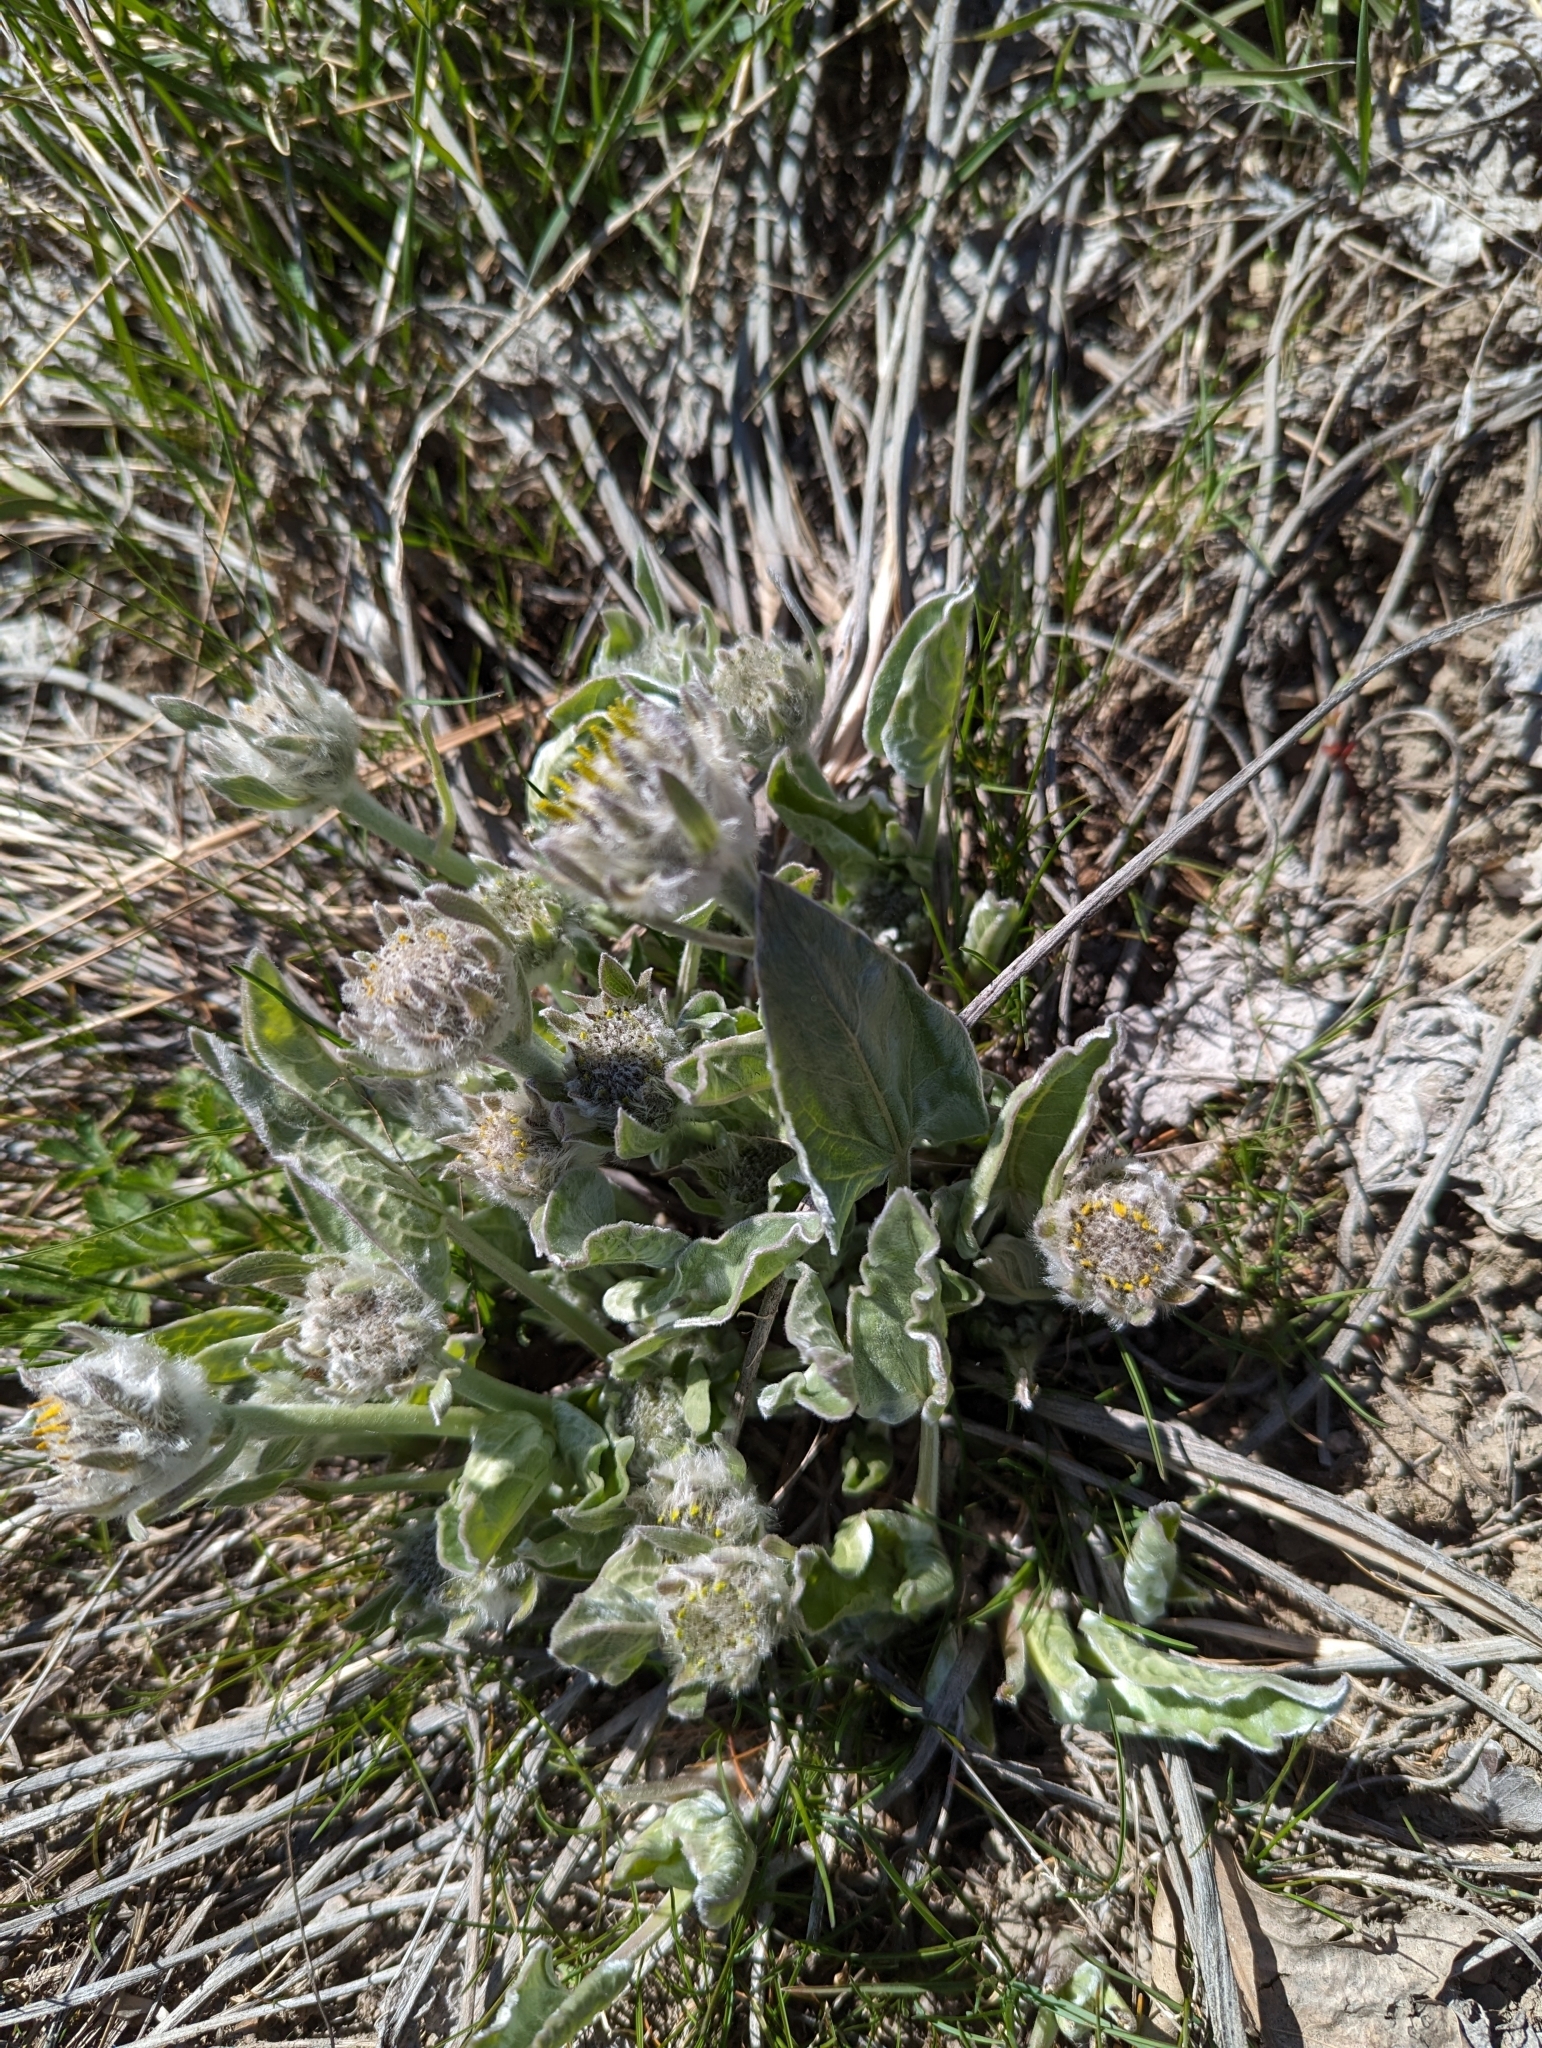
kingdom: Plantae
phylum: Tracheophyta
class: Magnoliopsida
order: Asterales
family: Asteraceae
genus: Wyethia
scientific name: Wyethia sagittata
